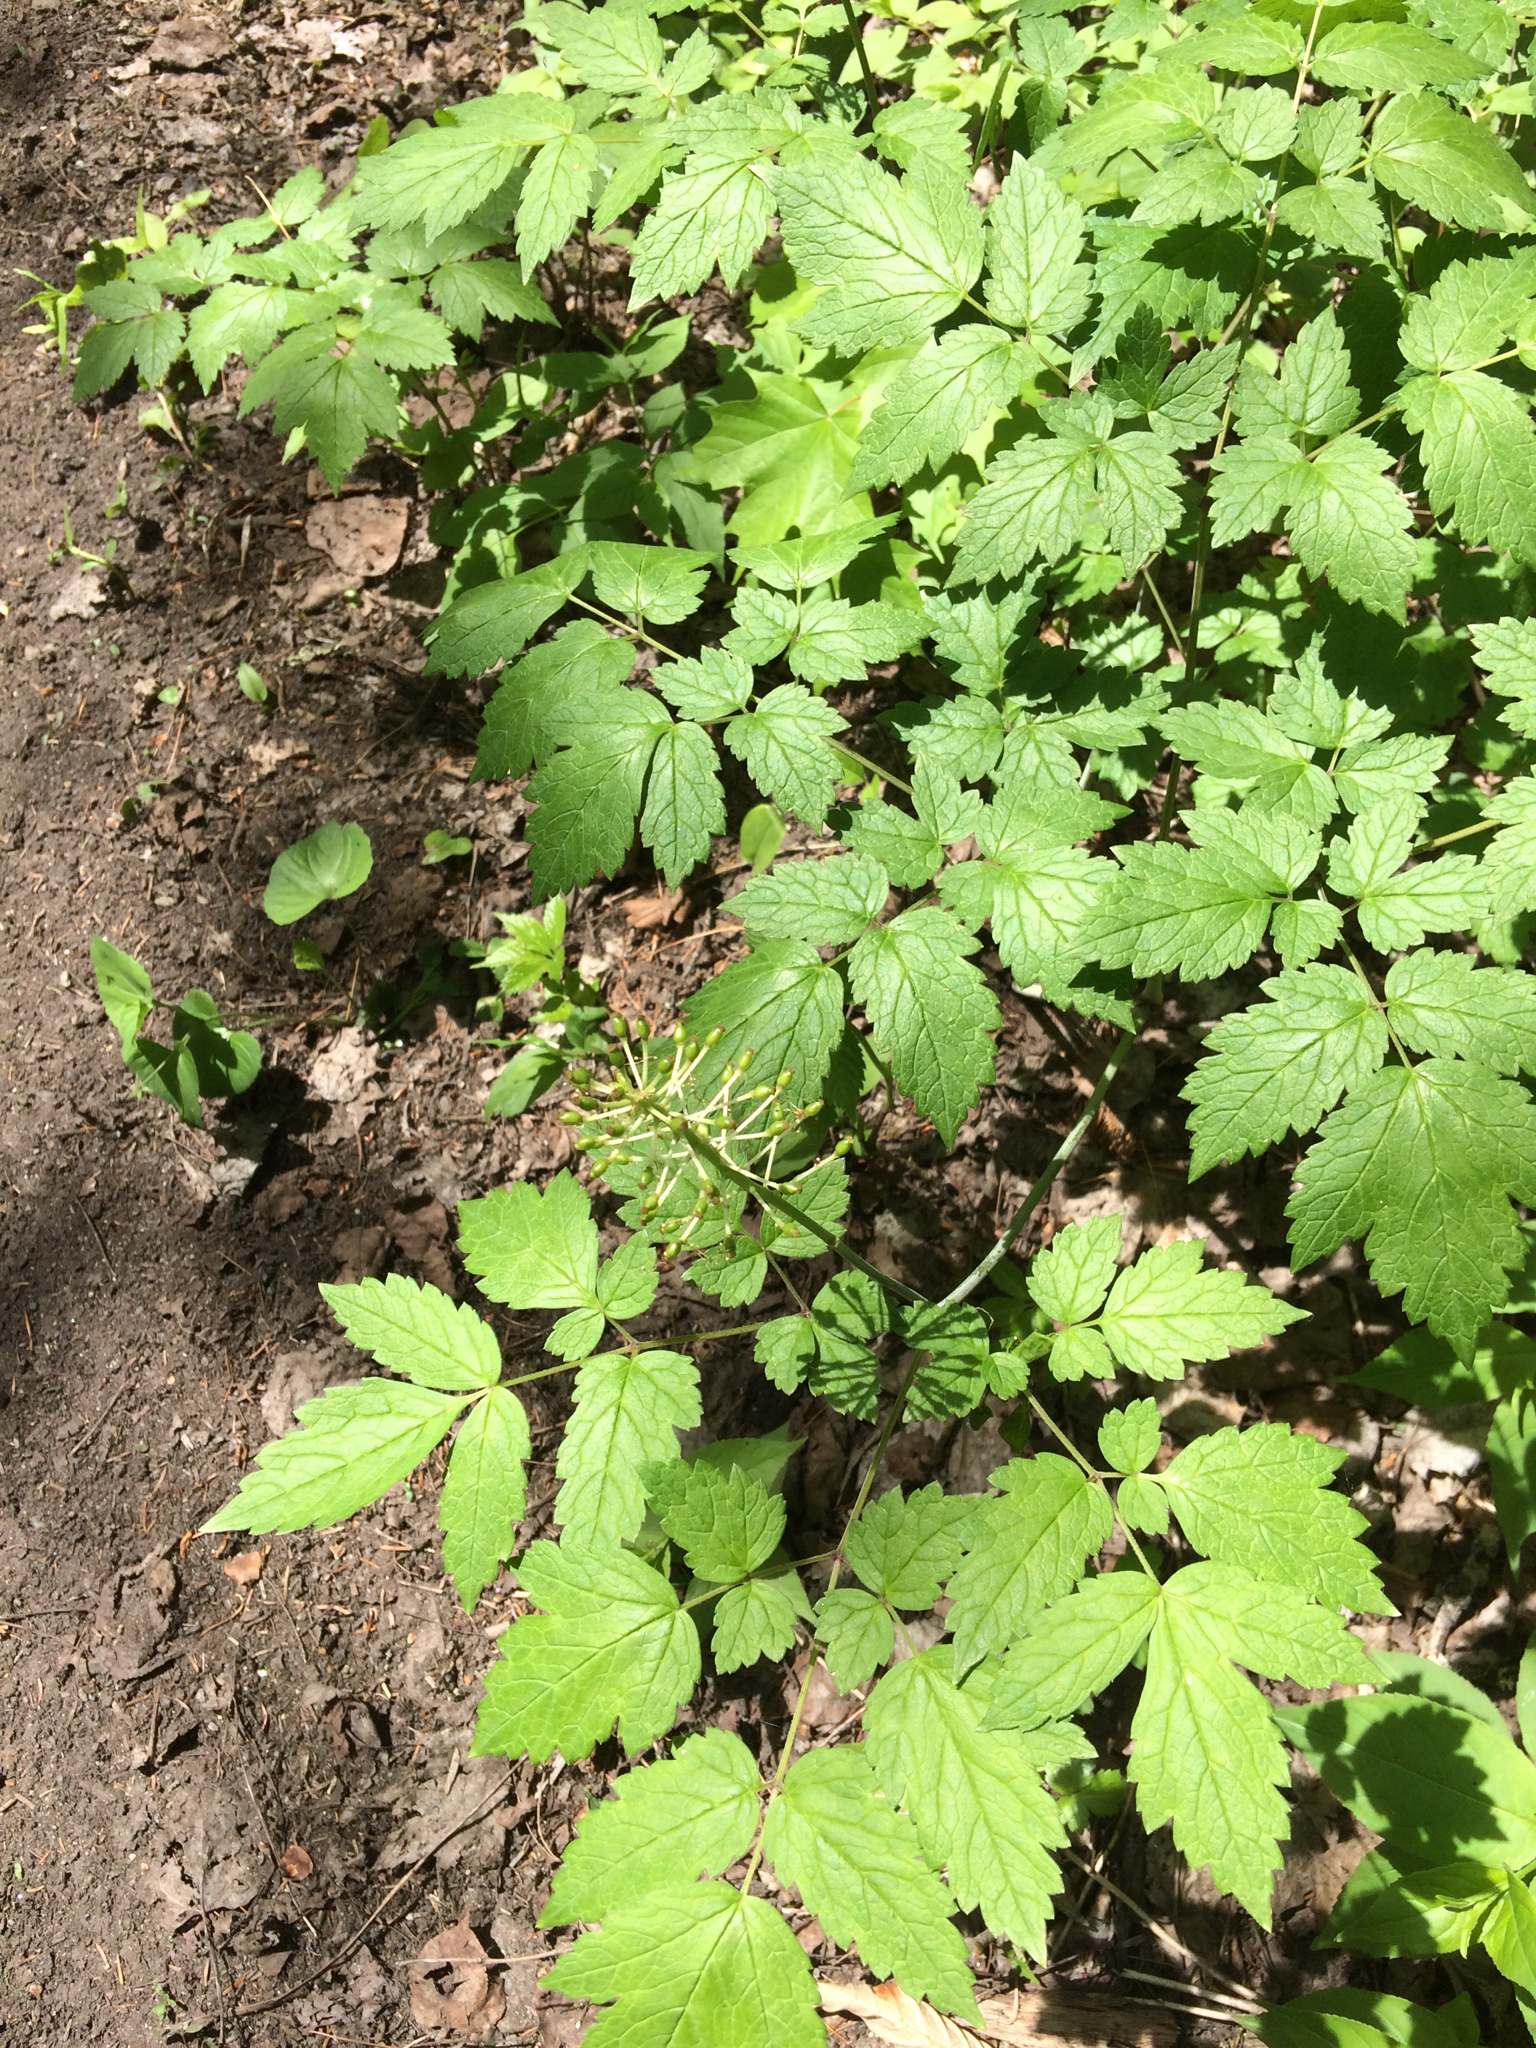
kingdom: Plantae
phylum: Tracheophyta
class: Magnoliopsida
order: Ranunculales
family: Ranunculaceae
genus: Actaea
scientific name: Actaea rubra
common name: Red baneberry
